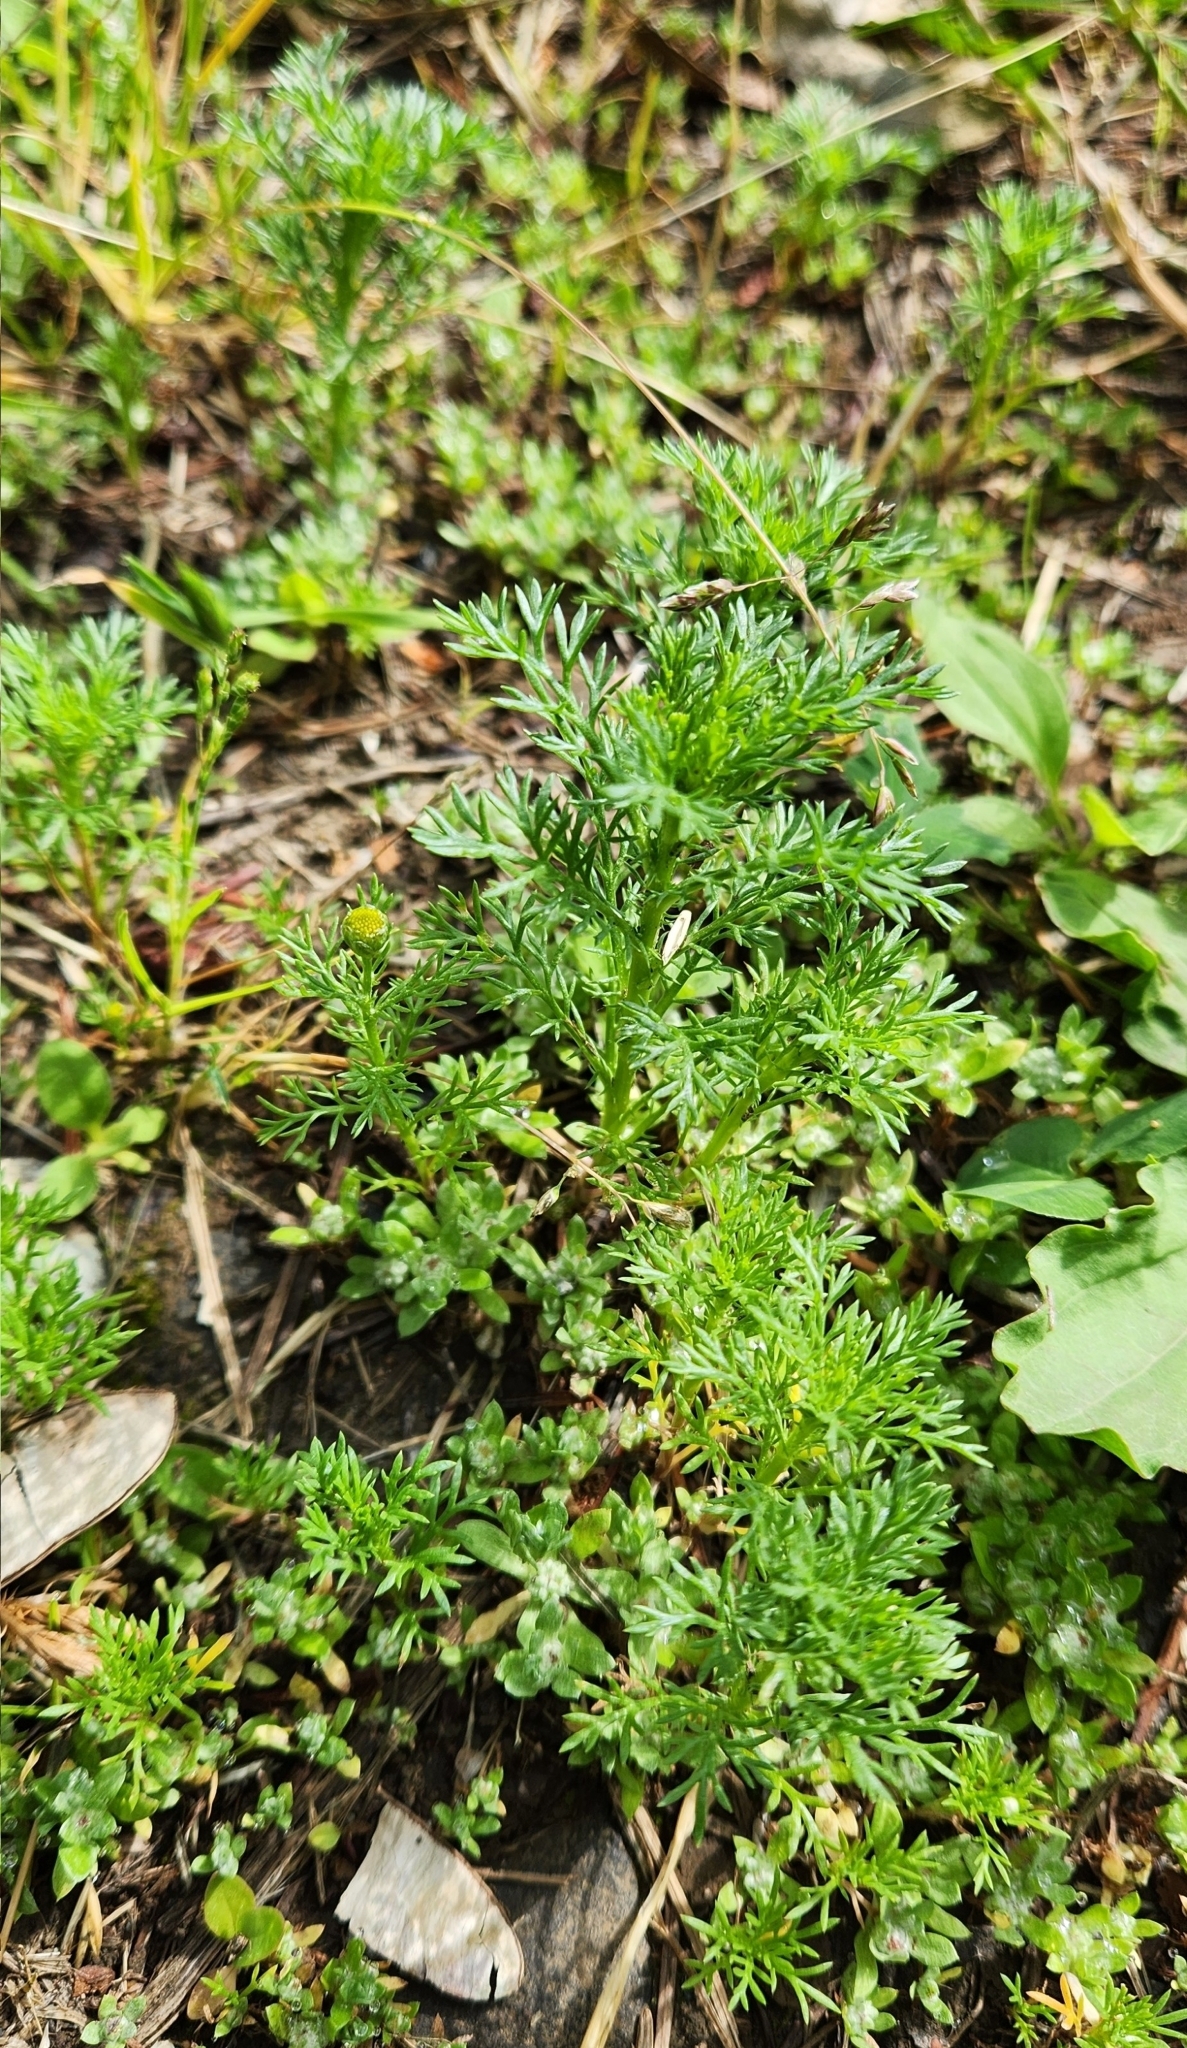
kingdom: Plantae
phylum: Tracheophyta
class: Magnoliopsida
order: Asterales
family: Asteraceae
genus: Matricaria
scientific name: Matricaria discoidea
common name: Disc mayweed
